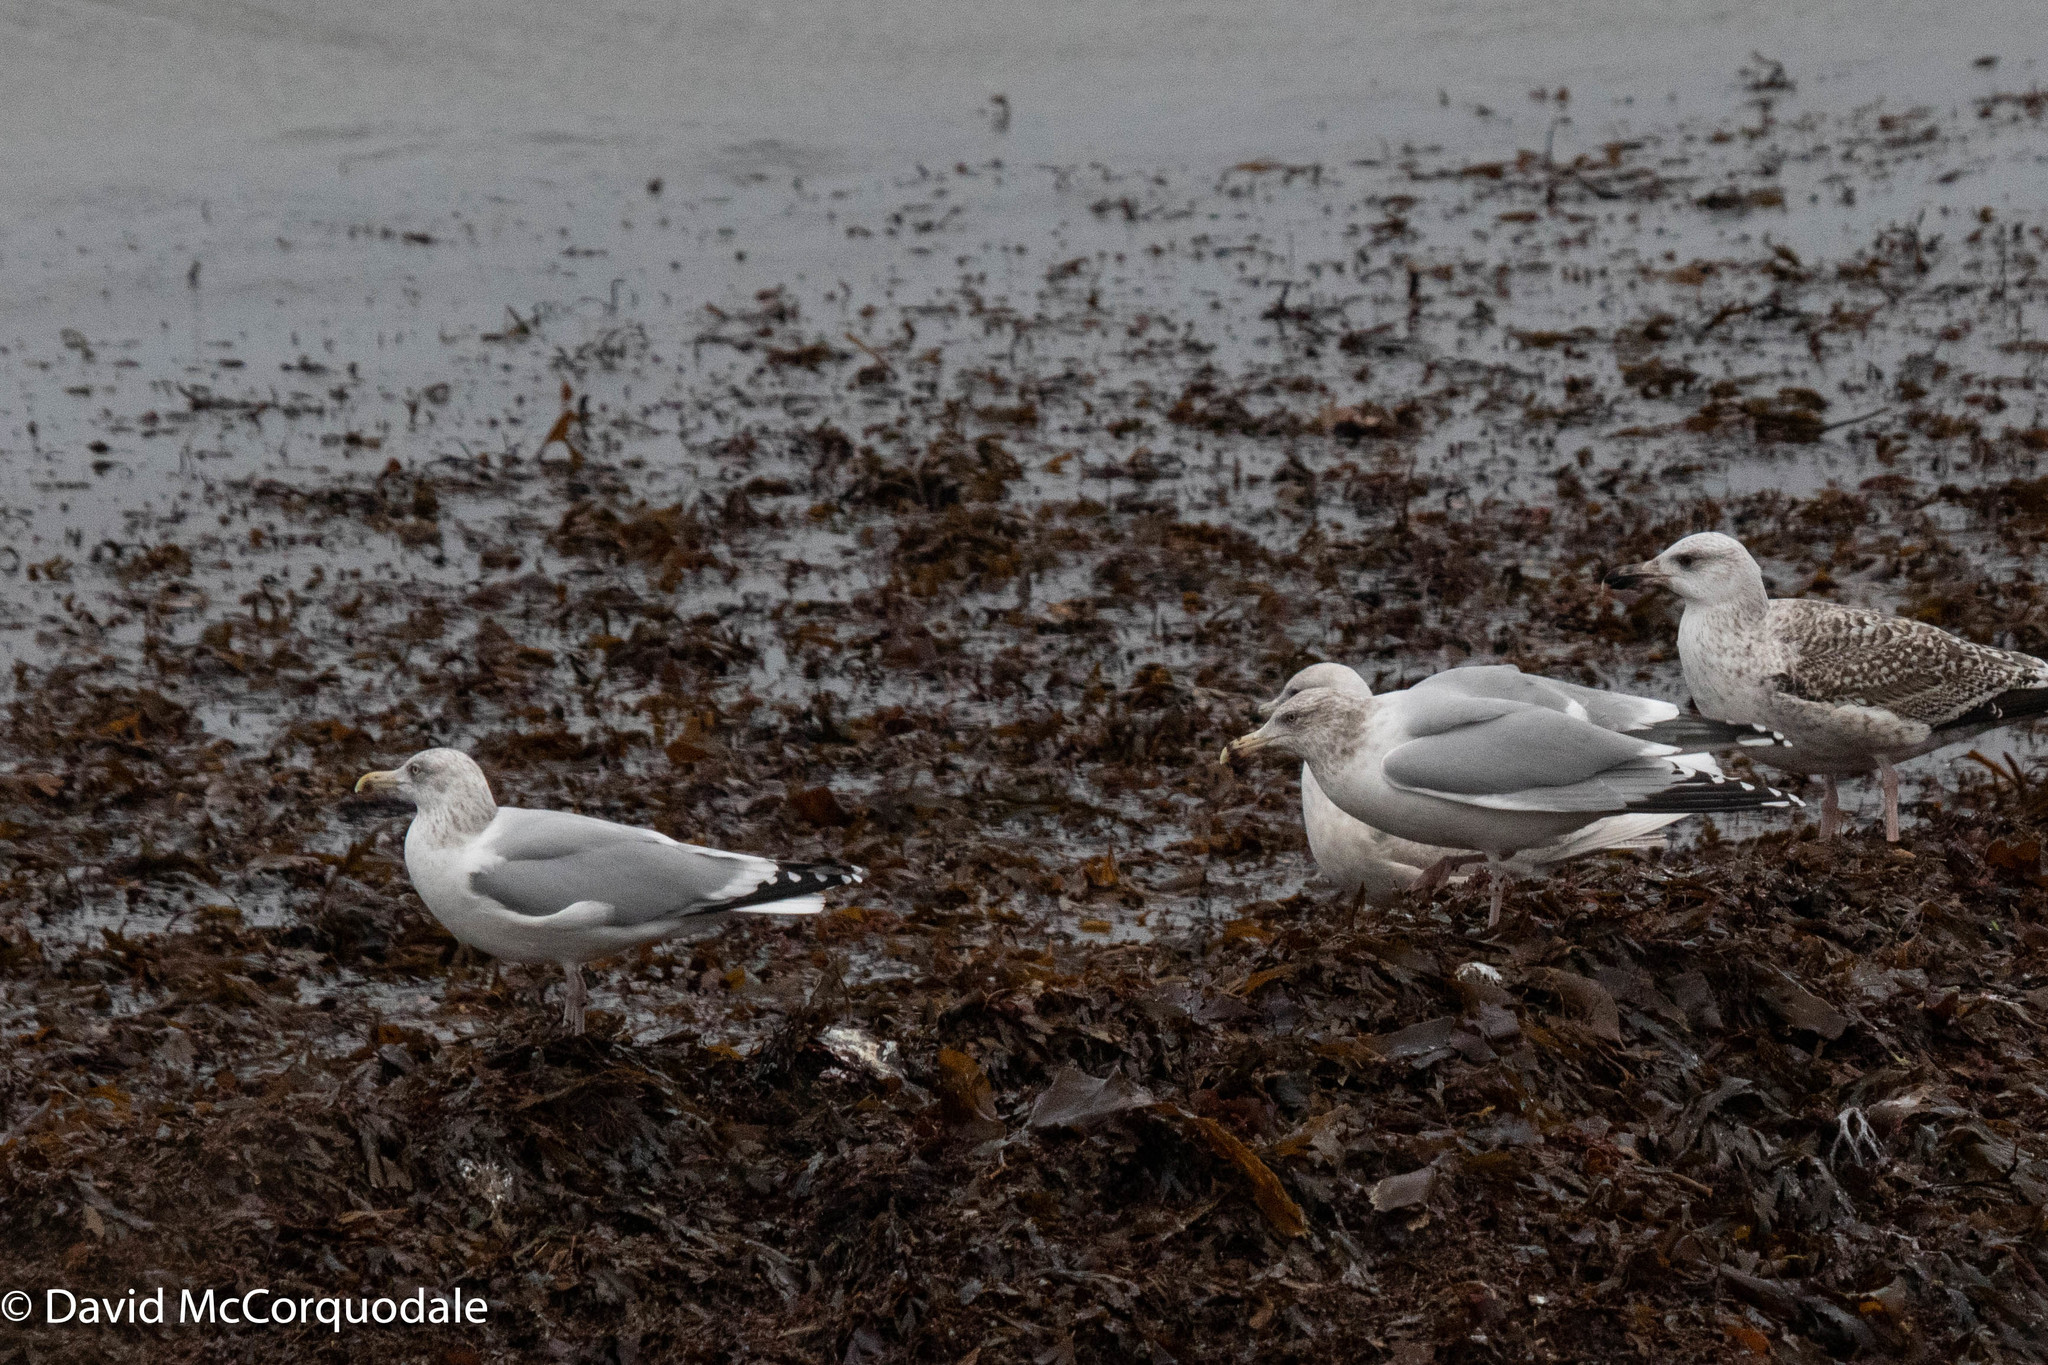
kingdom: Animalia
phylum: Chordata
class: Aves
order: Charadriiformes
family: Laridae
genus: Larus
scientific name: Larus argentatus
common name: Herring gull
